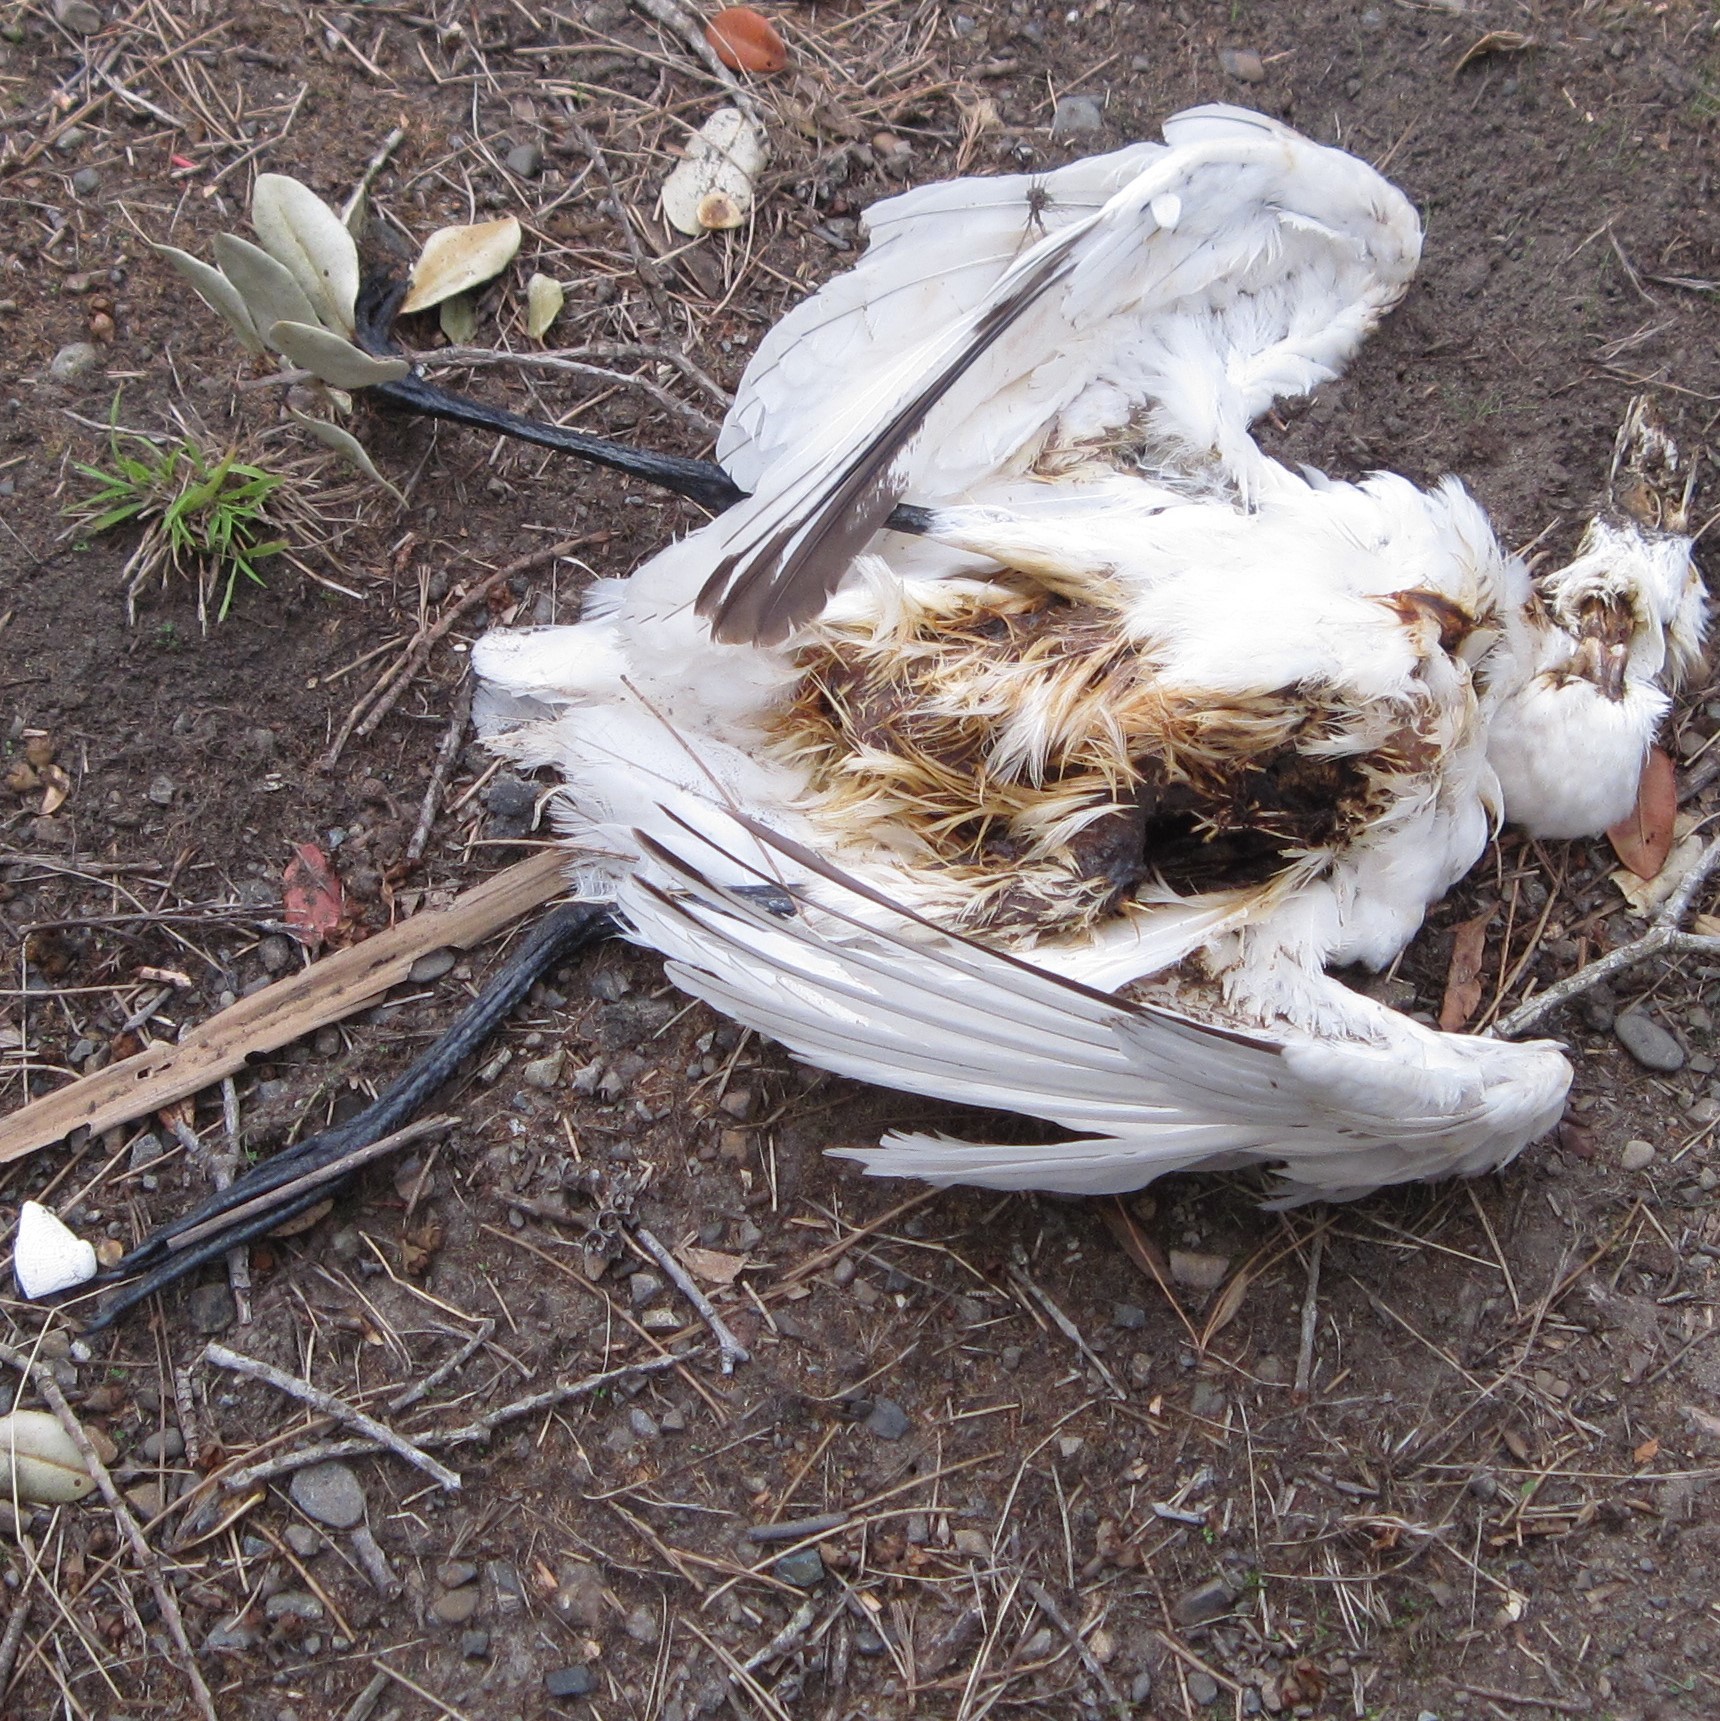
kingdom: Animalia
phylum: Chordata
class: Aves
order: Pelecaniformes
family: Threskiornithidae
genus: Platalea
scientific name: Platalea regia
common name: Royal spoonbill
